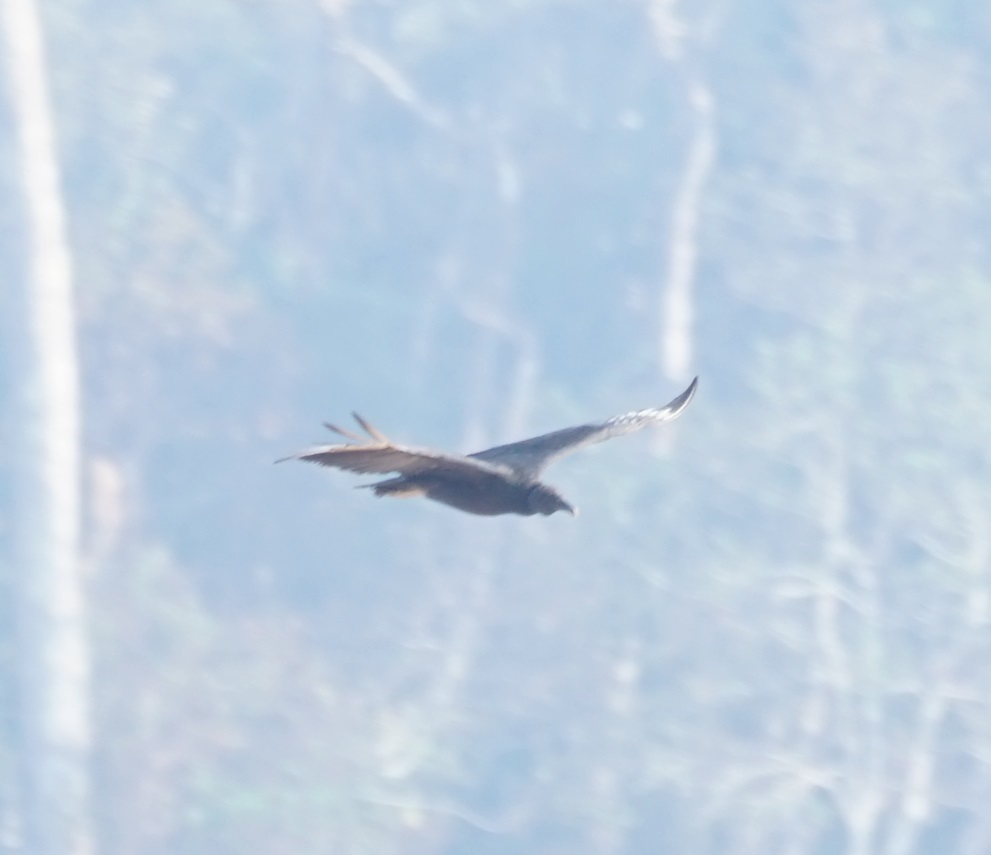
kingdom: Animalia
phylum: Chordata
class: Aves
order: Accipitriformes
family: Cathartidae
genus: Coragyps
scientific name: Coragyps atratus
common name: Black vulture
